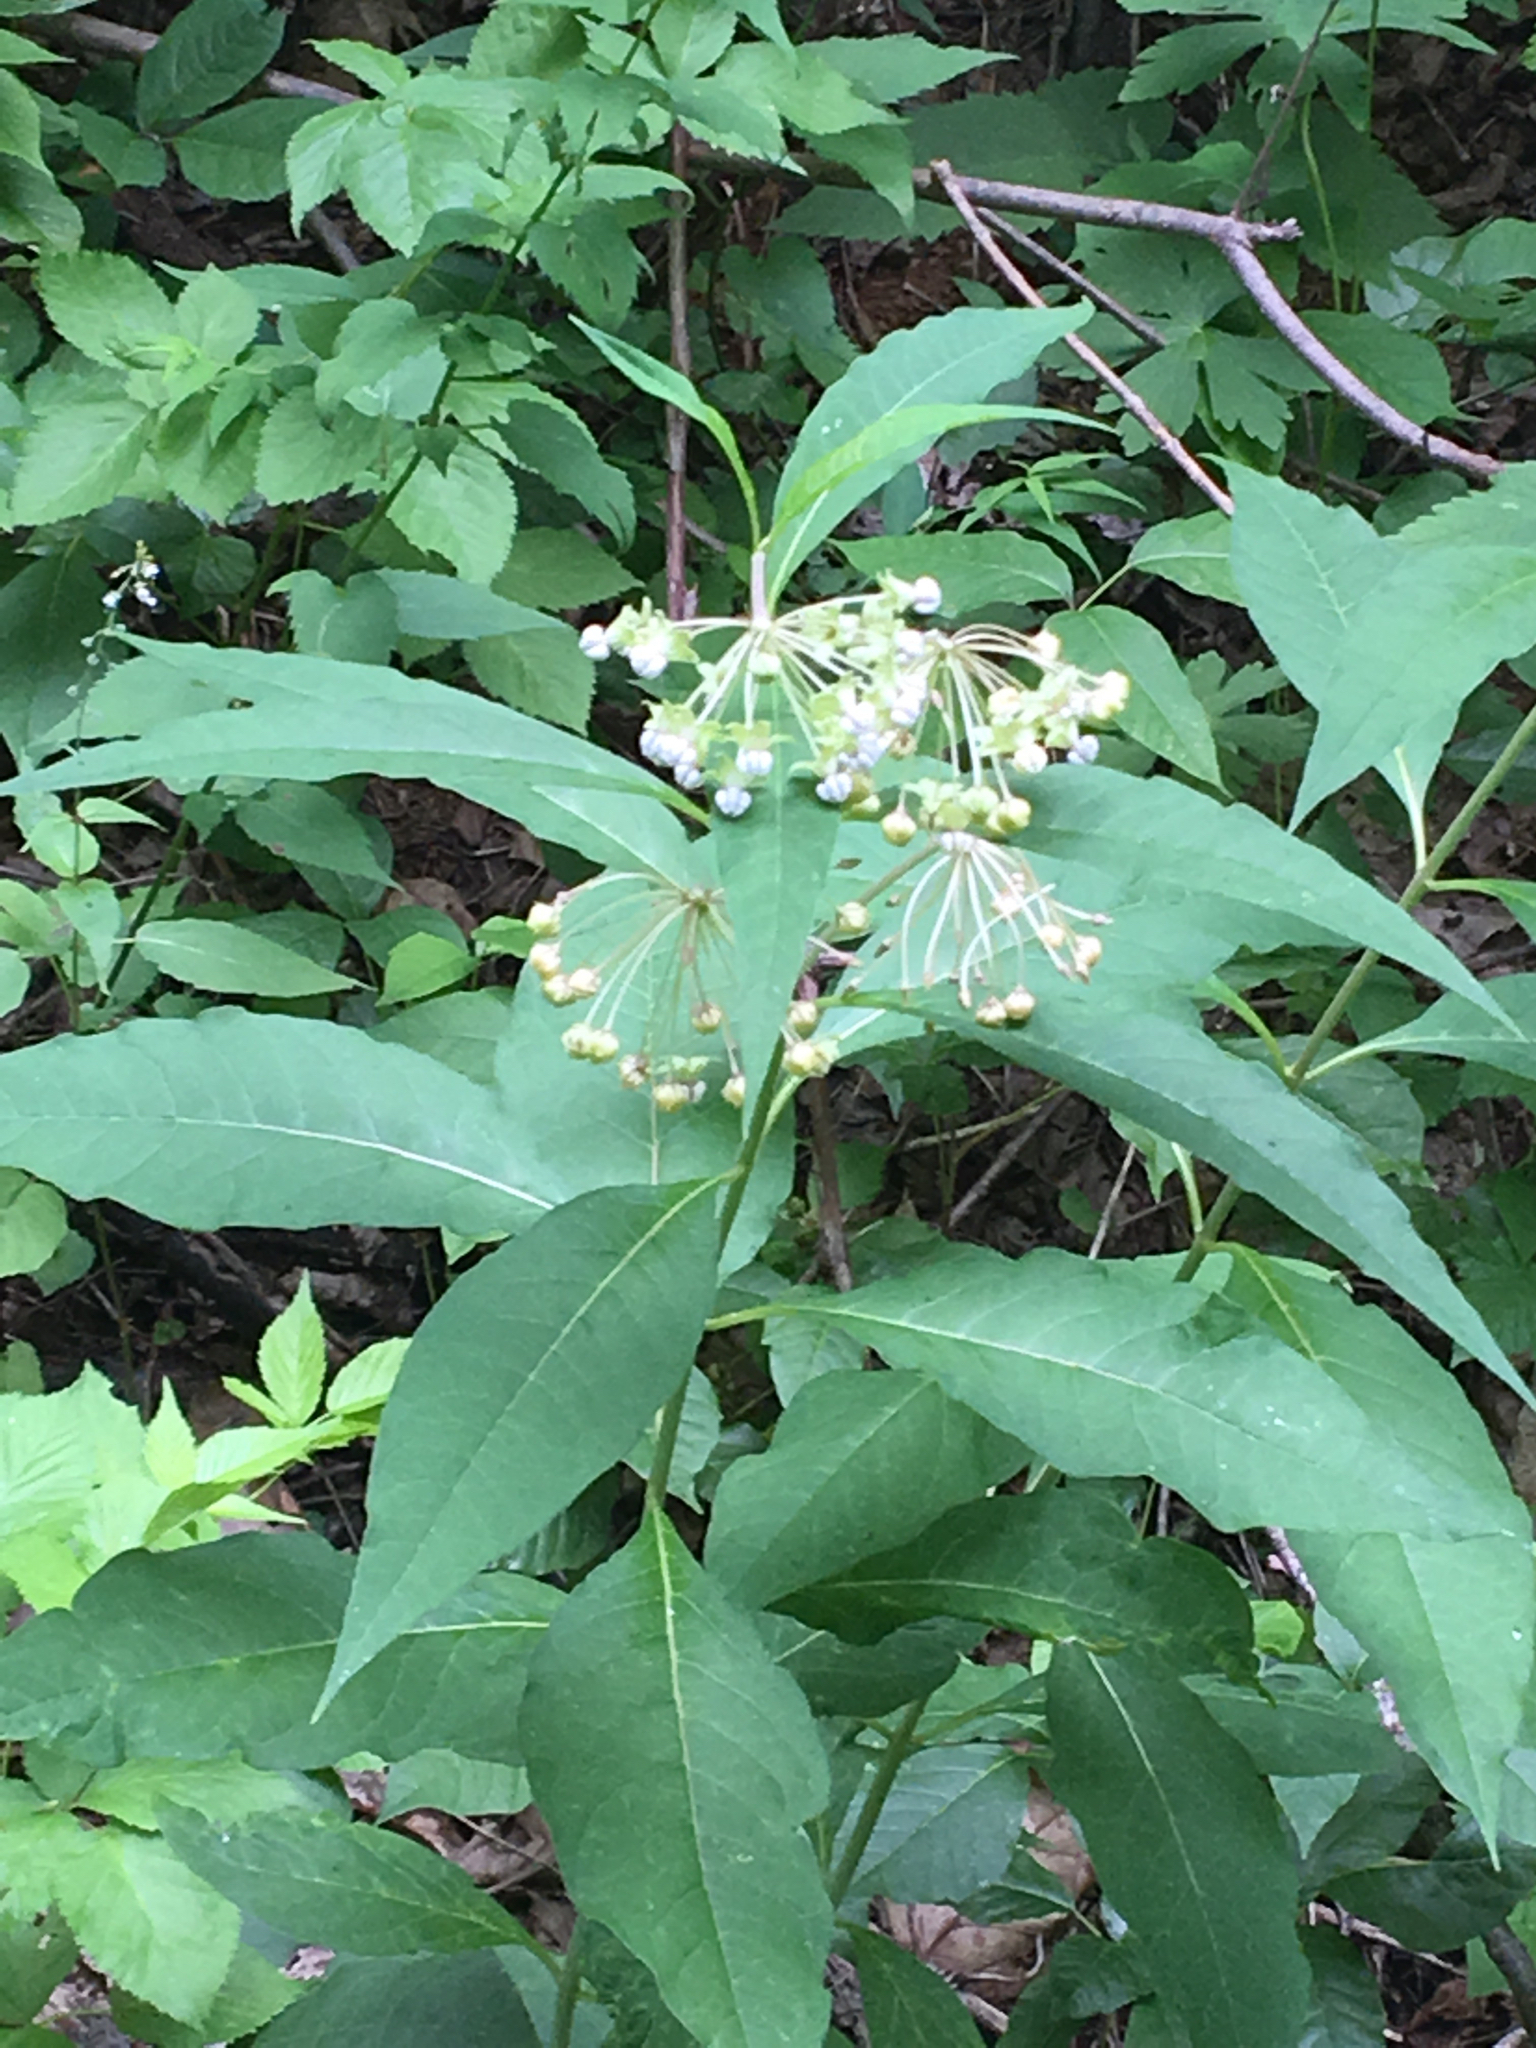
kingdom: Plantae
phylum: Tracheophyta
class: Magnoliopsida
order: Gentianales
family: Apocynaceae
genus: Asclepias
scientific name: Asclepias exaltata
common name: Poke milkweed
